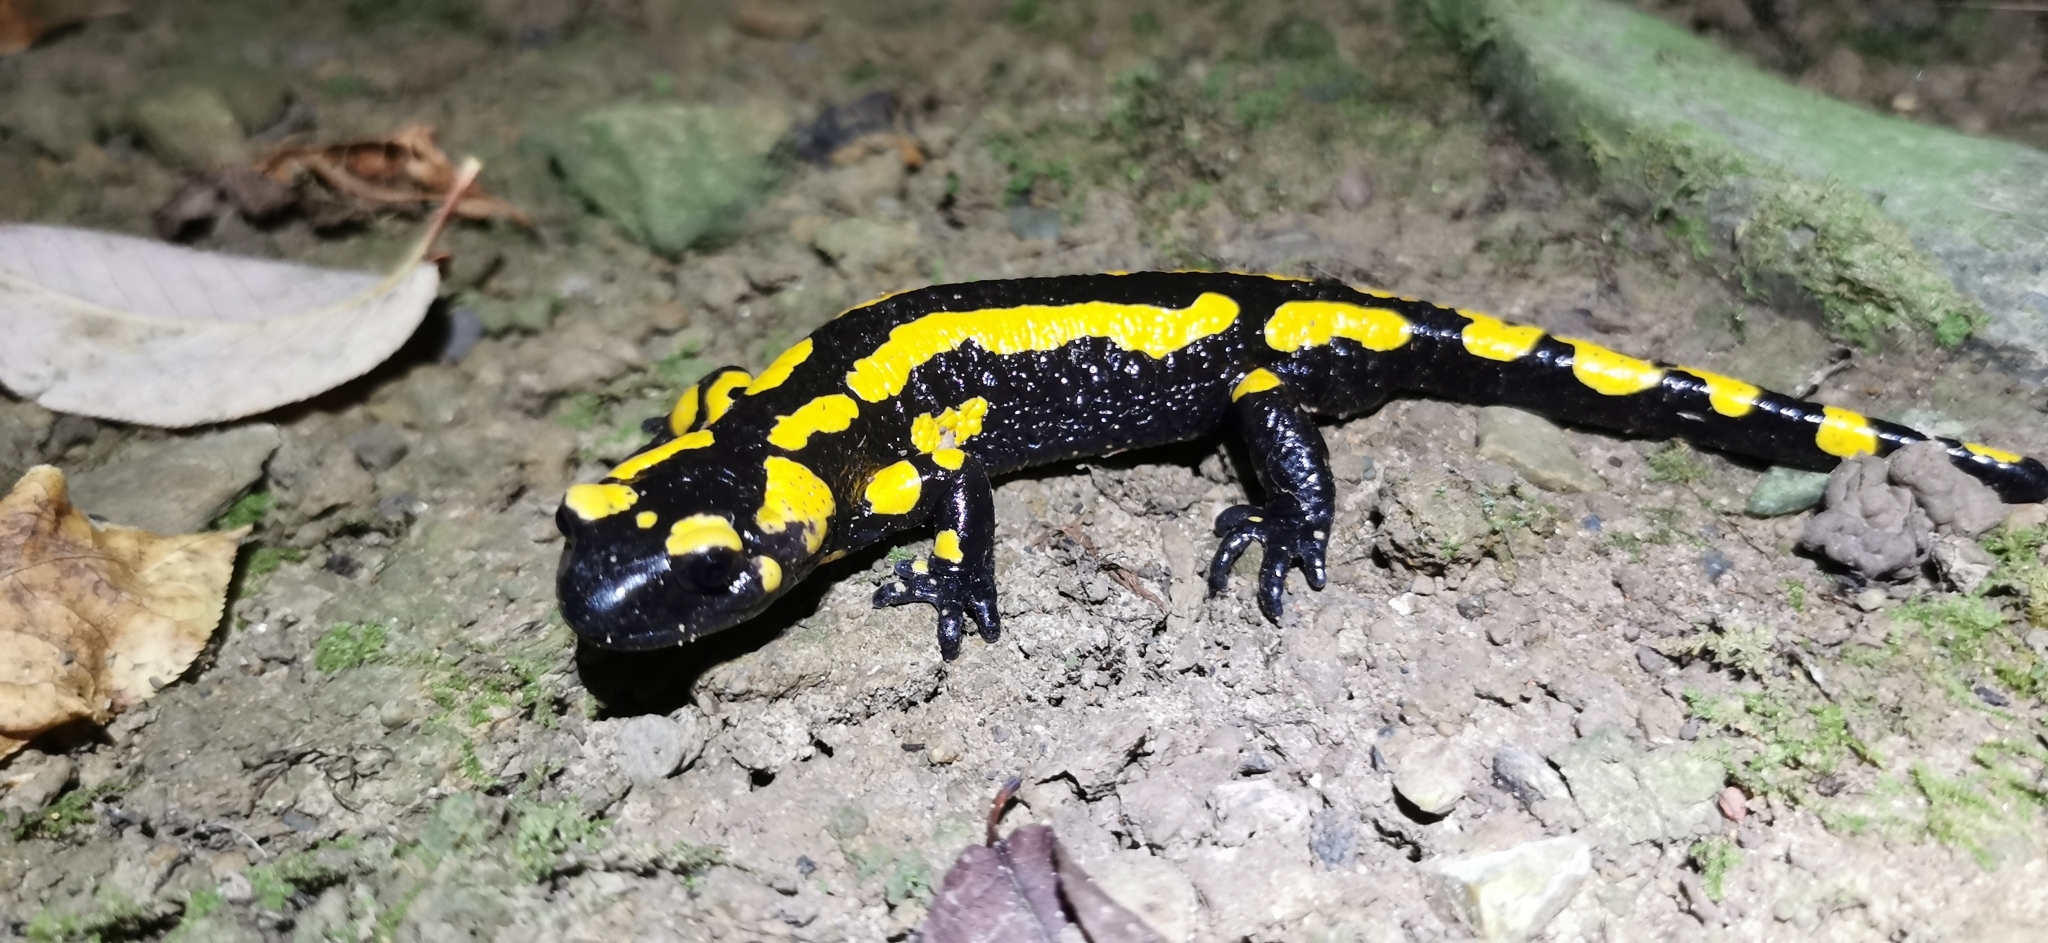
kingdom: Animalia
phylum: Chordata
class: Amphibia
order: Caudata
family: Salamandridae
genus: Salamandra
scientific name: Salamandra salamandra
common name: Fire salamander
